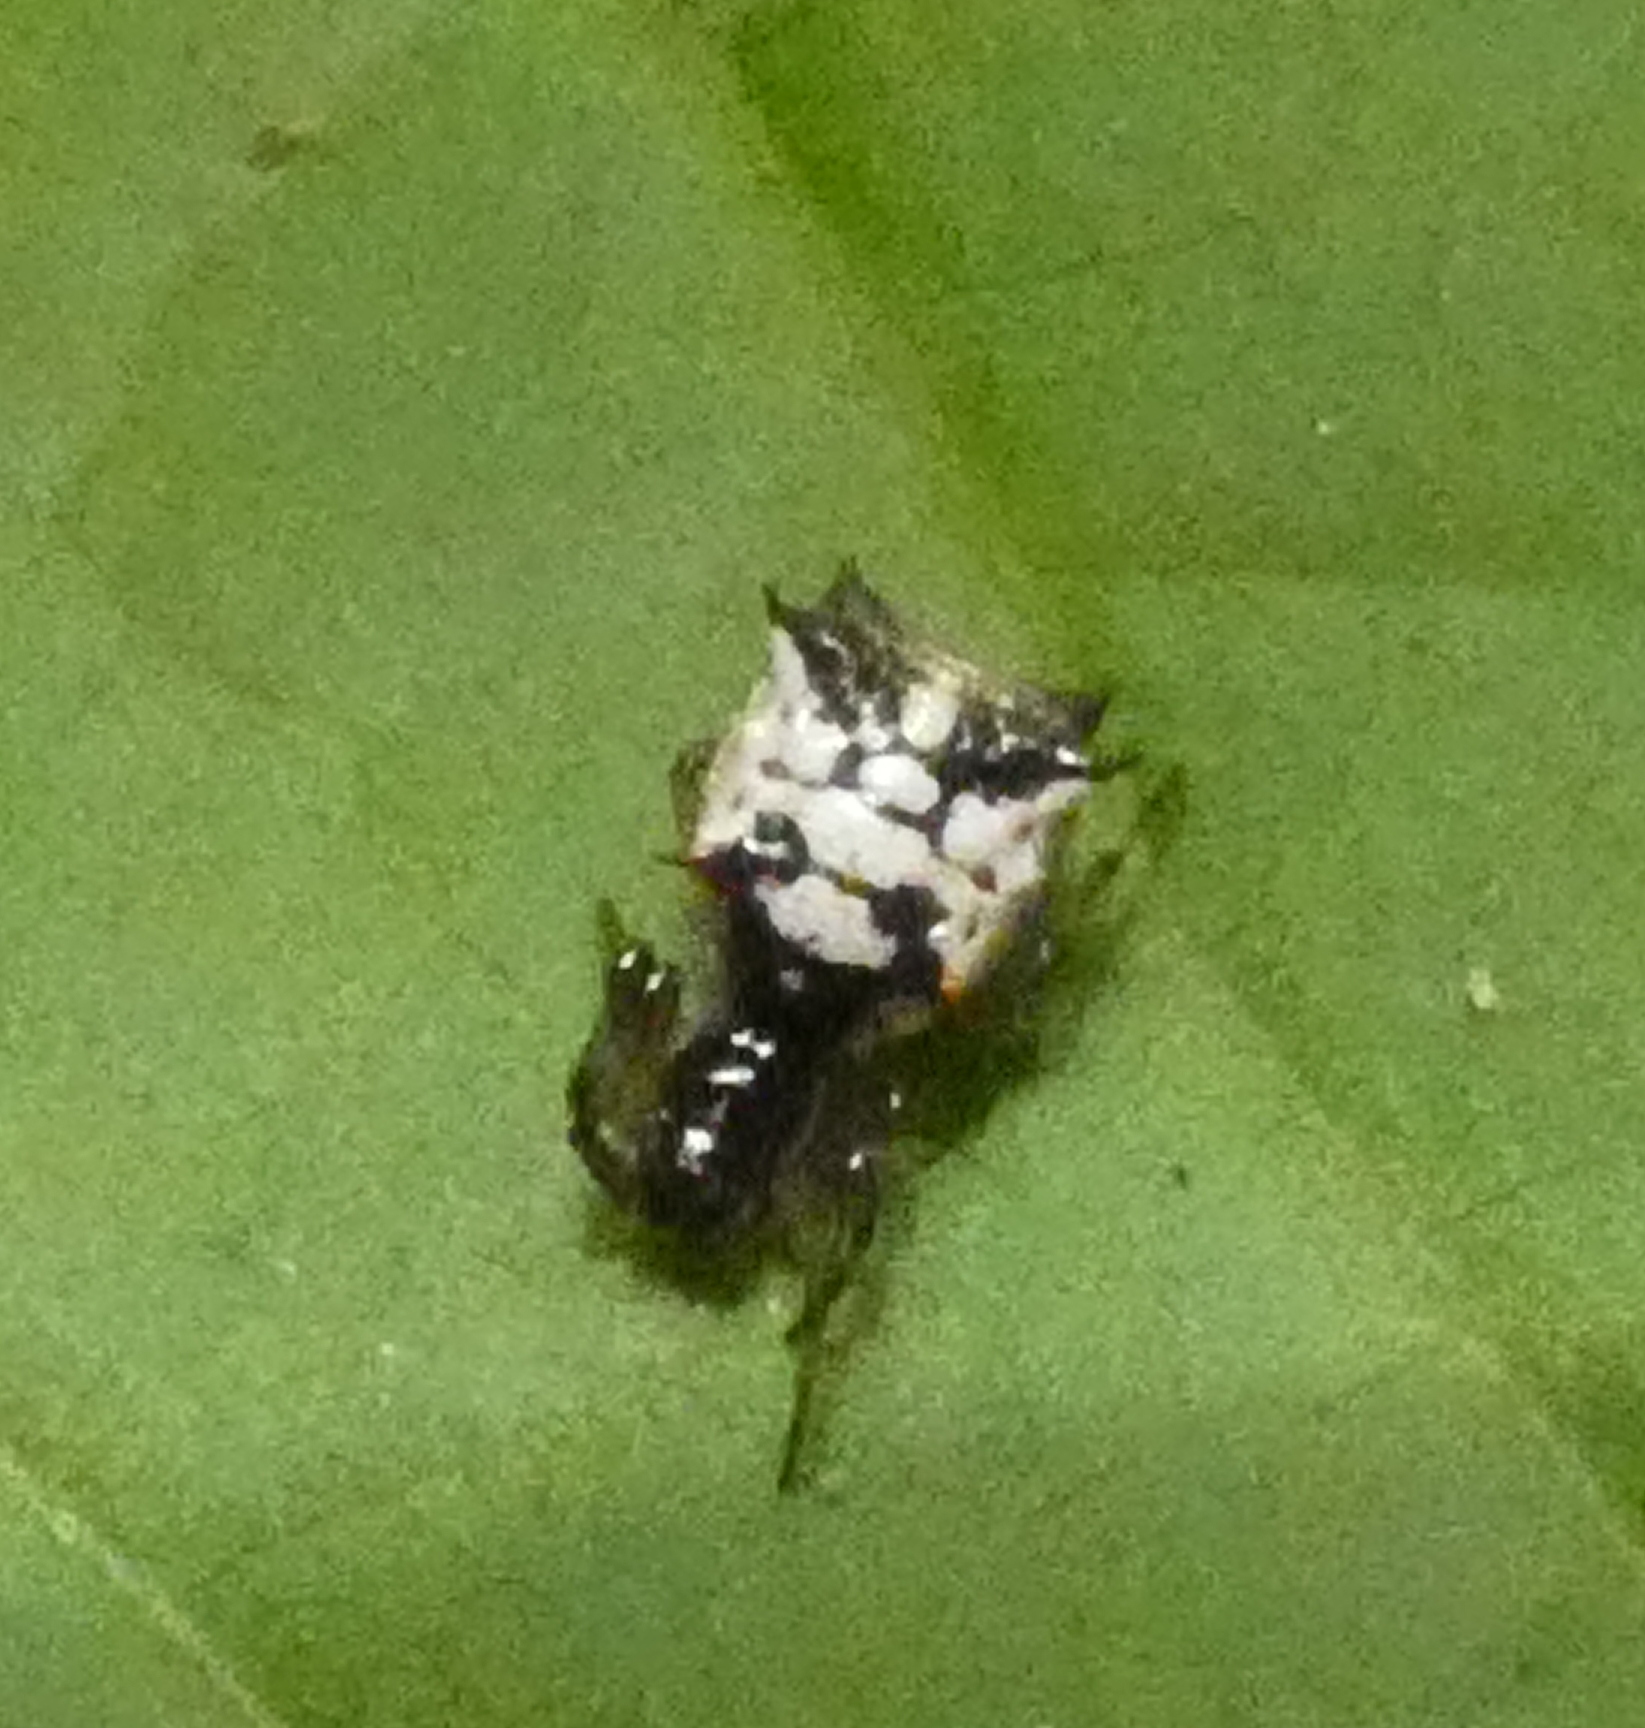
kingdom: Animalia
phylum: Arthropoda
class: Arachnida
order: Araneae
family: Araneidae
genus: Micrathena
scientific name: Micrathena picta
